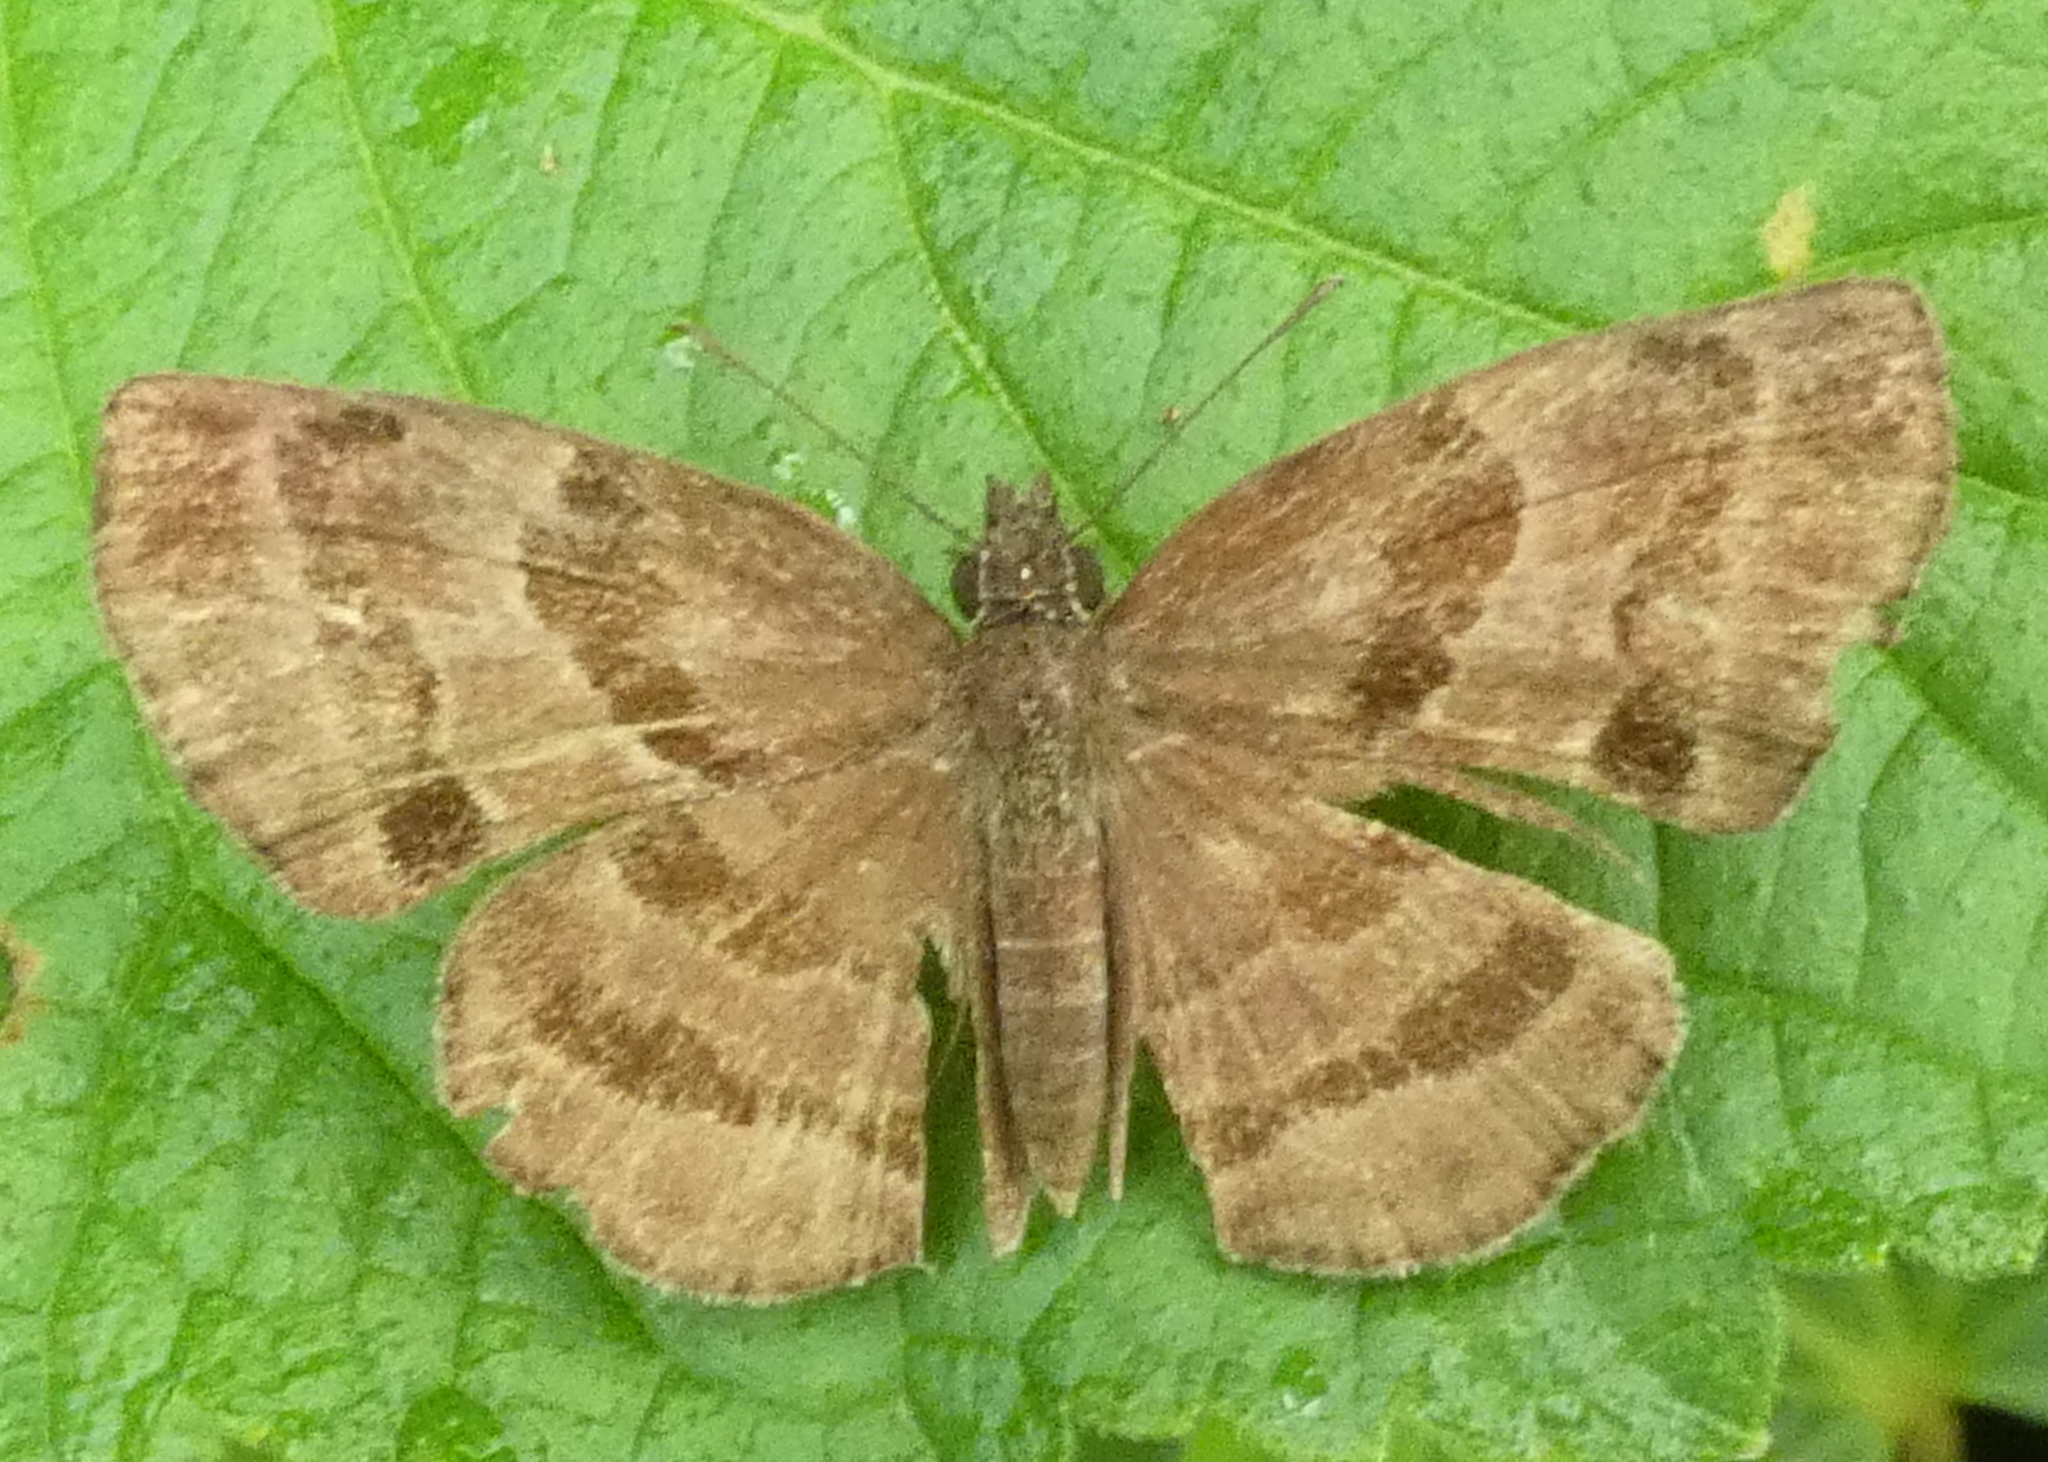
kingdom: Animalia
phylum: Arthropoda
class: Insecta
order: Lepidoptera
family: Hesperiidae
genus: Trina
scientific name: Trina geometrina
